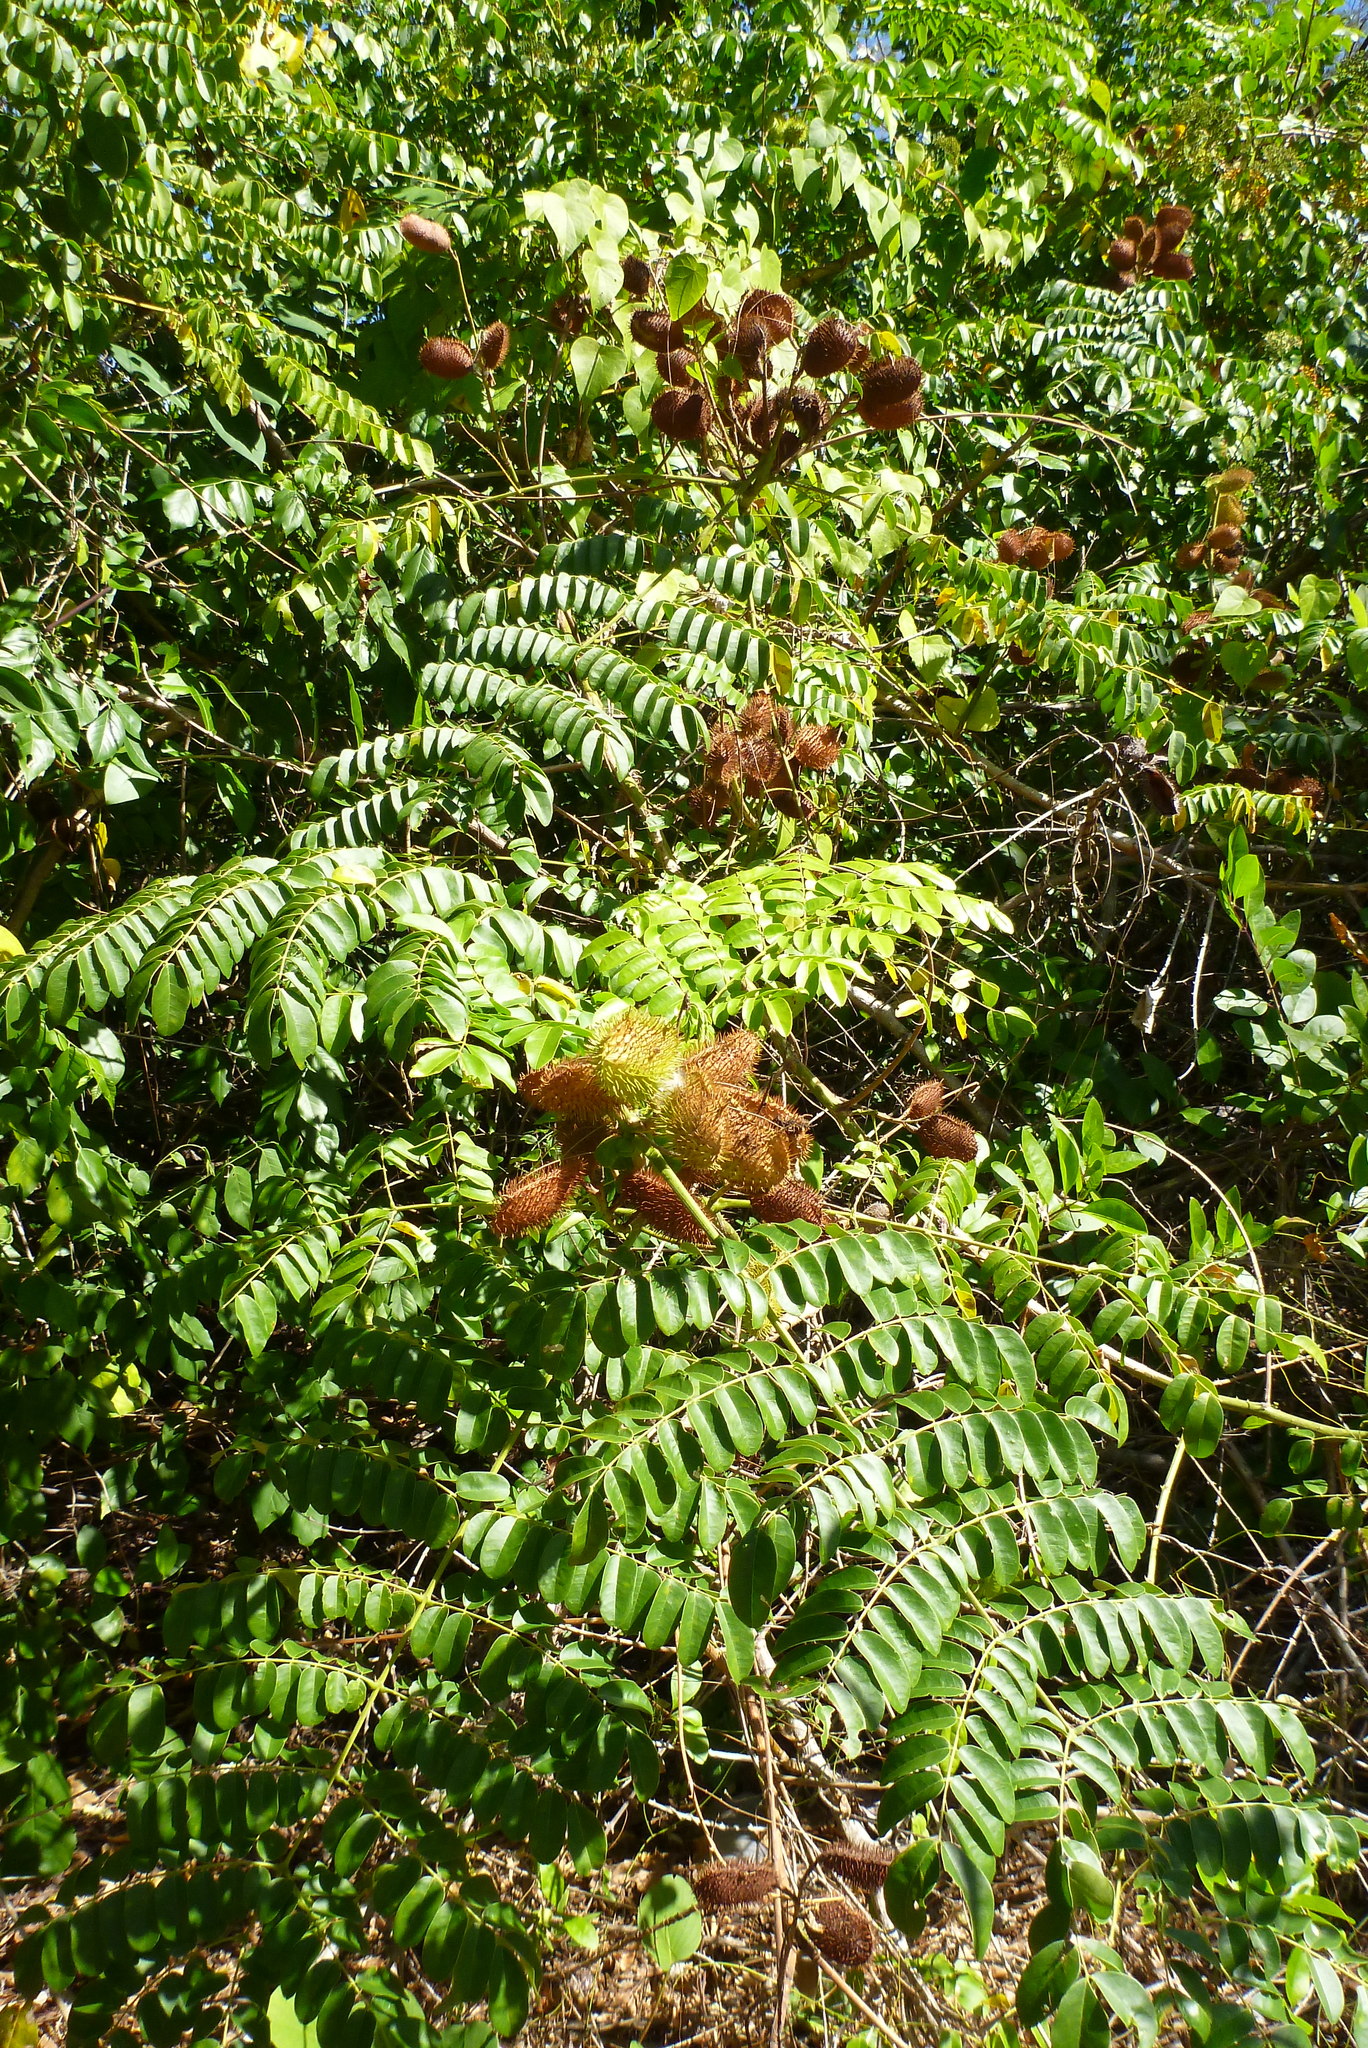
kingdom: Plantae
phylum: Tracheophyta
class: Magnoliopsida
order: Fabales
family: Fabaceae
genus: Guilandina
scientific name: Guilandina bonduc
